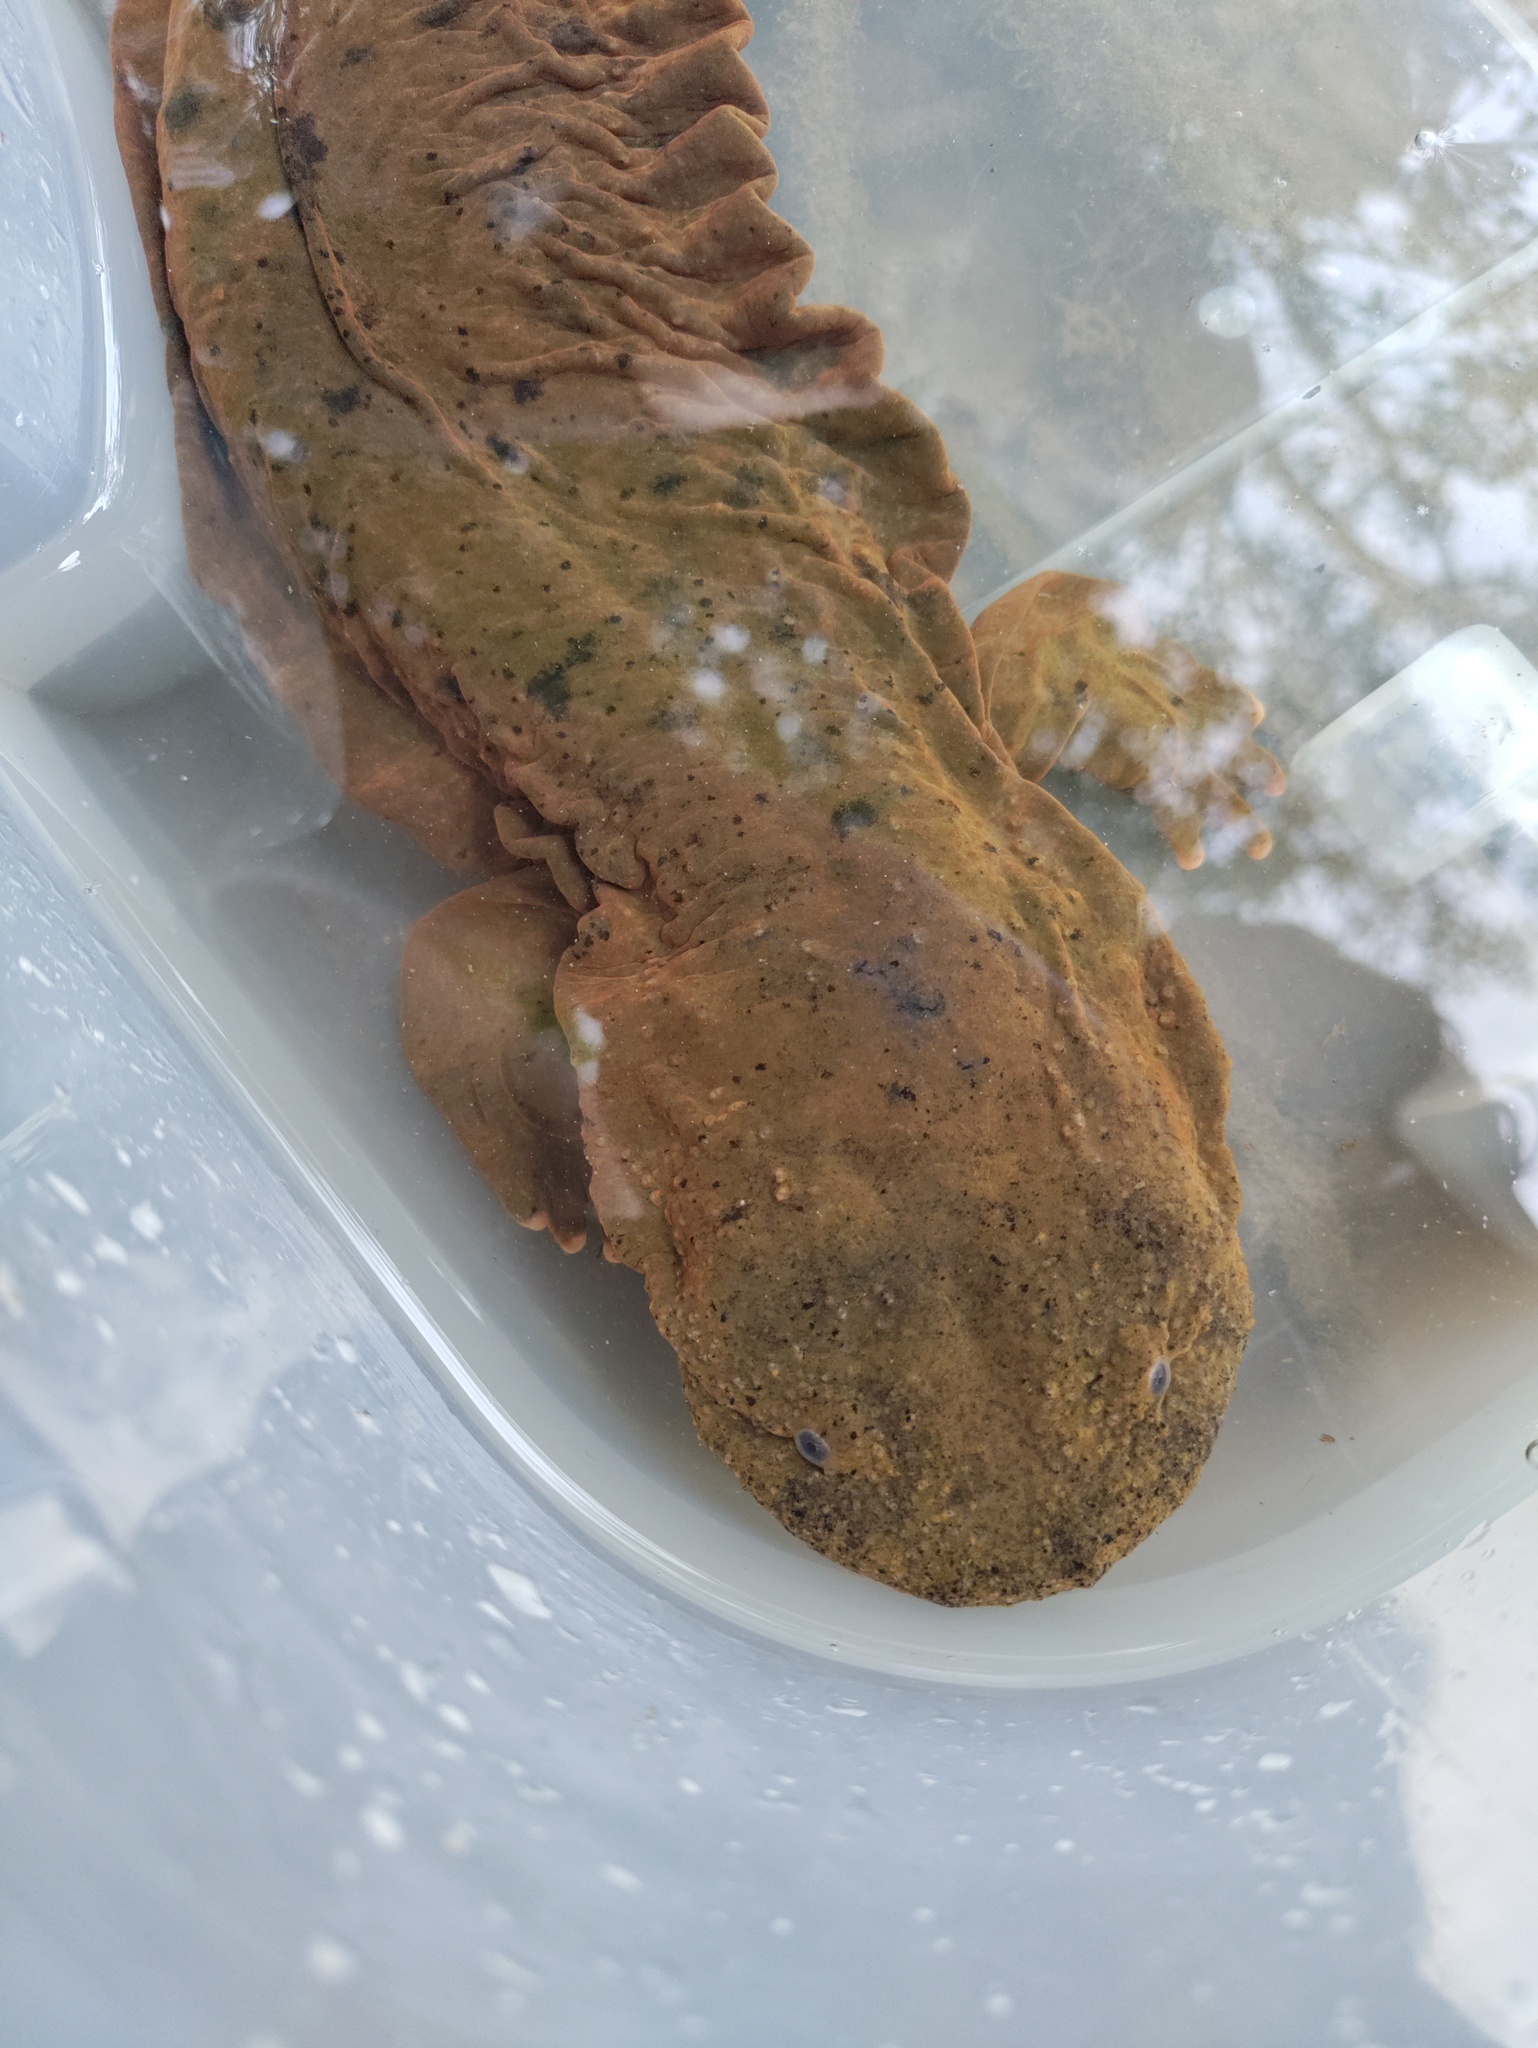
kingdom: Animalia
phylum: Chordata
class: Amphibia
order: Caudata
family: Cryptobranchidae
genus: Cryptobranchus
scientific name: Cryptobranchus alleganiensis
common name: Hellbender
